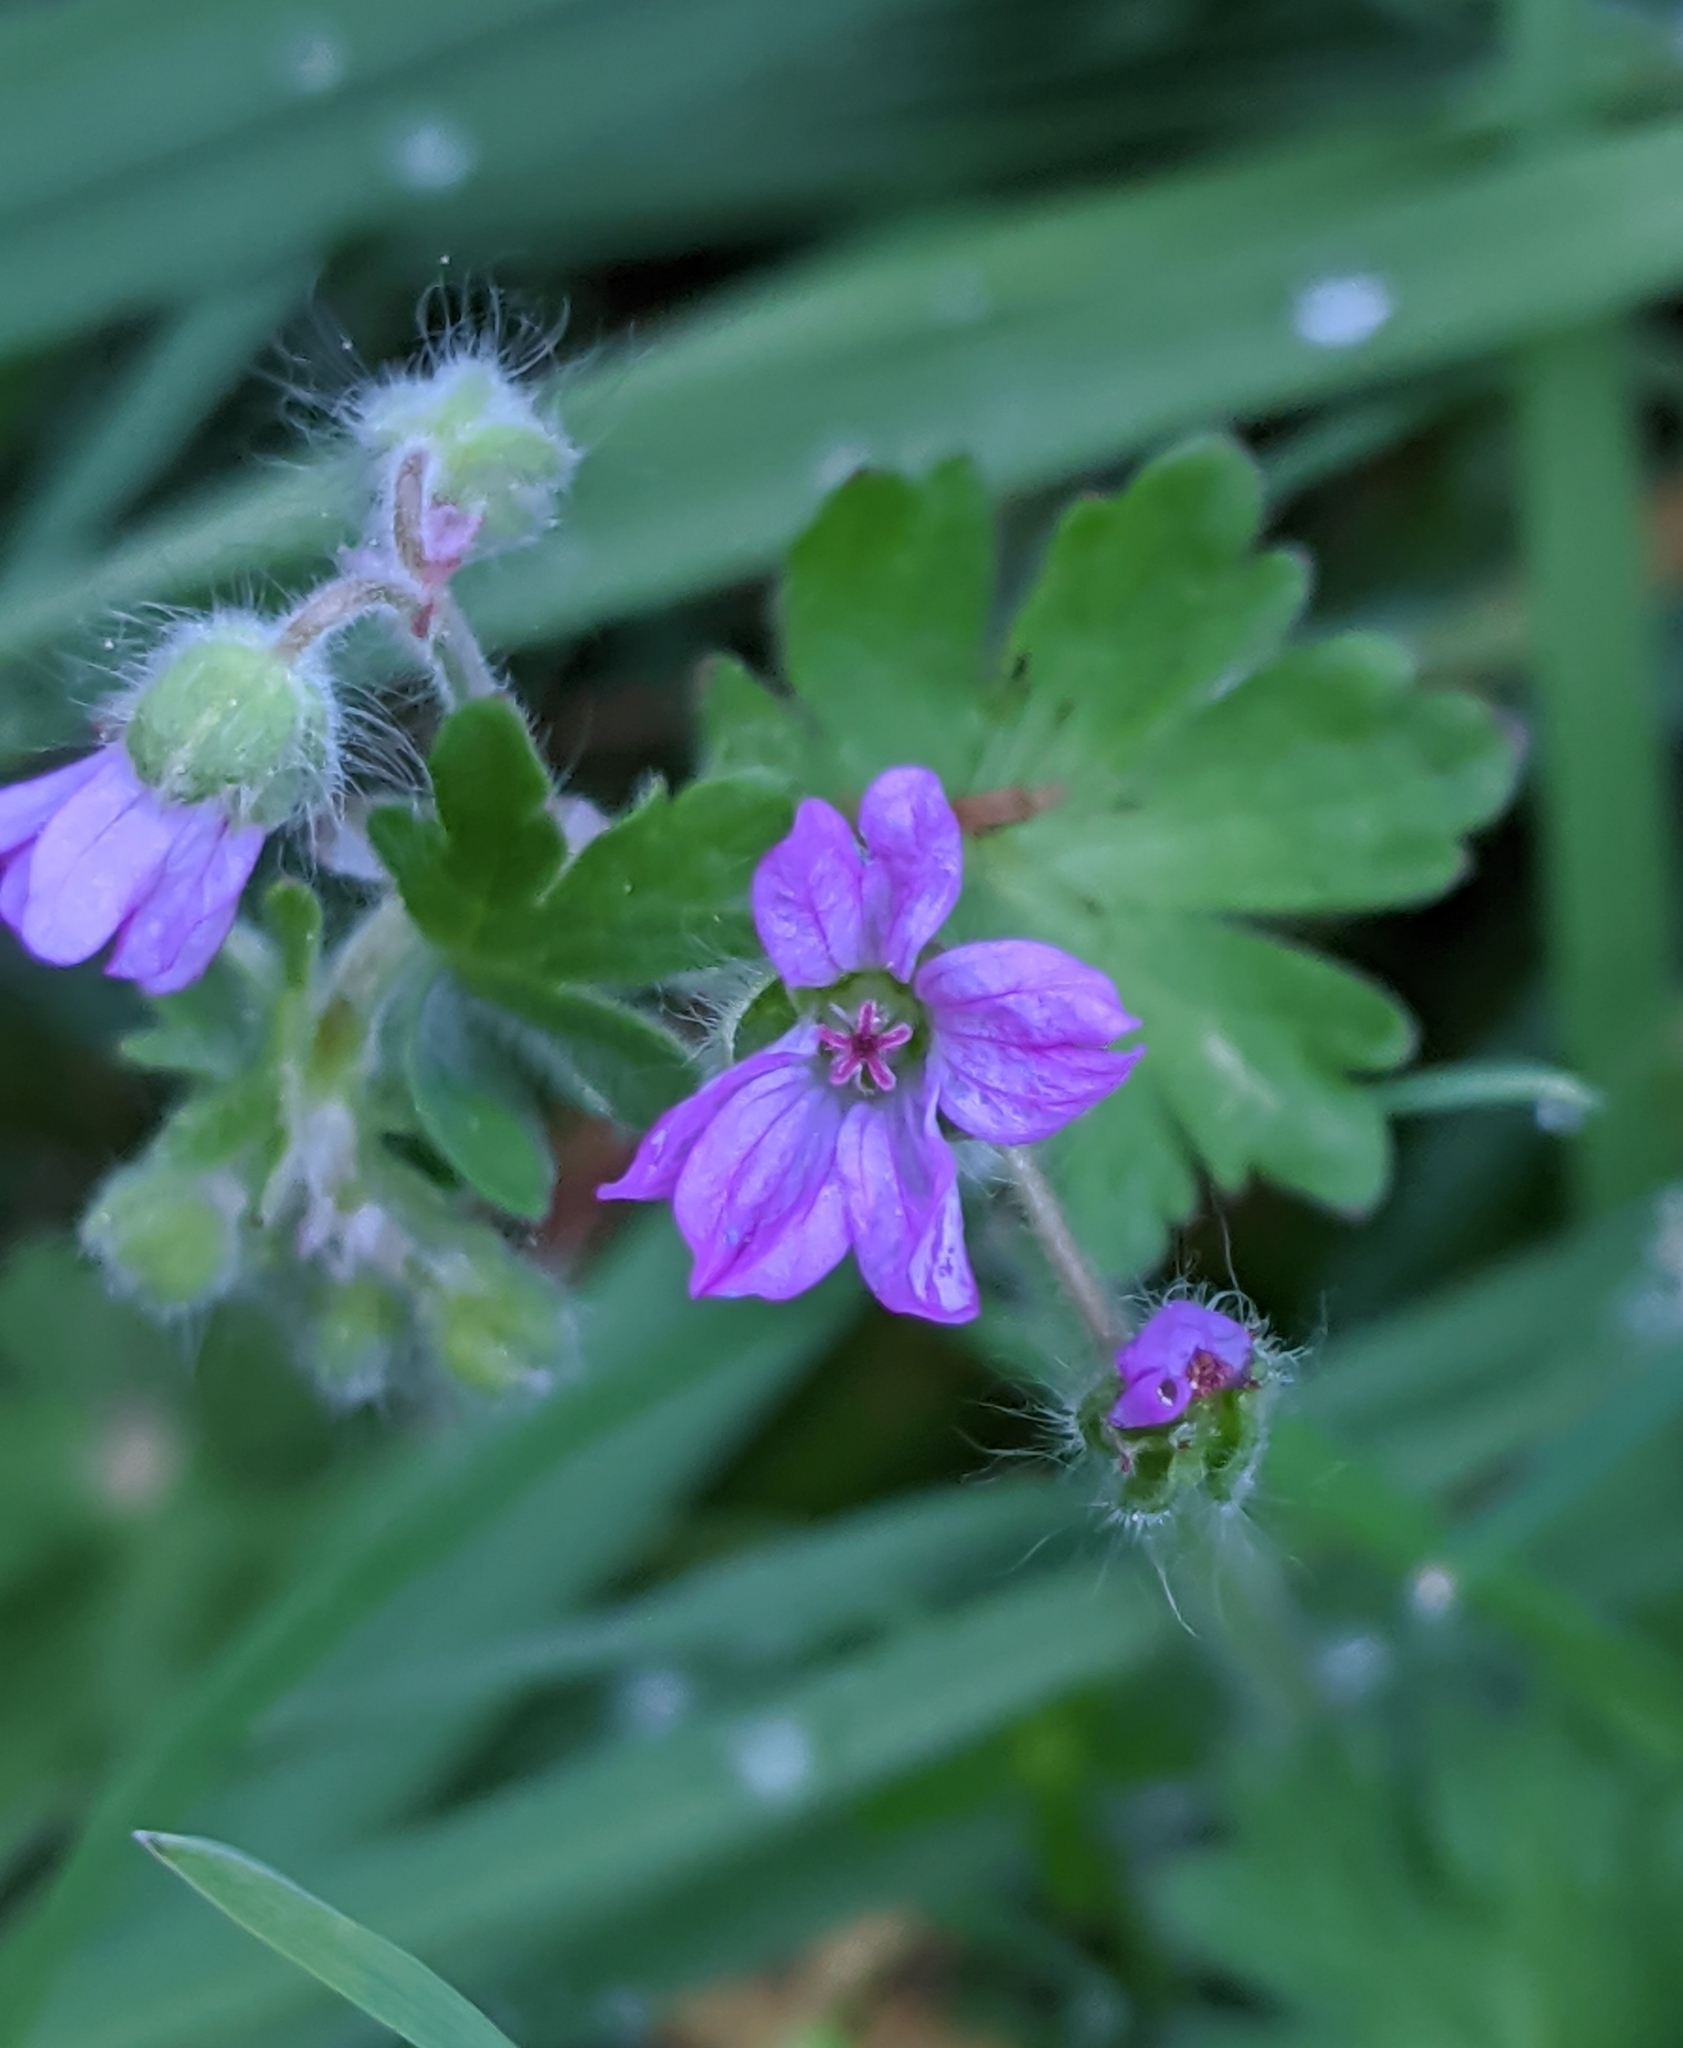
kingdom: Plantae
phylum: Tracheophyta
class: Magnoliopsida
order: Geraniales
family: Geraniaceae
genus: Geranium
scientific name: Geranium molle
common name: Dove's-foot crane's-bill
